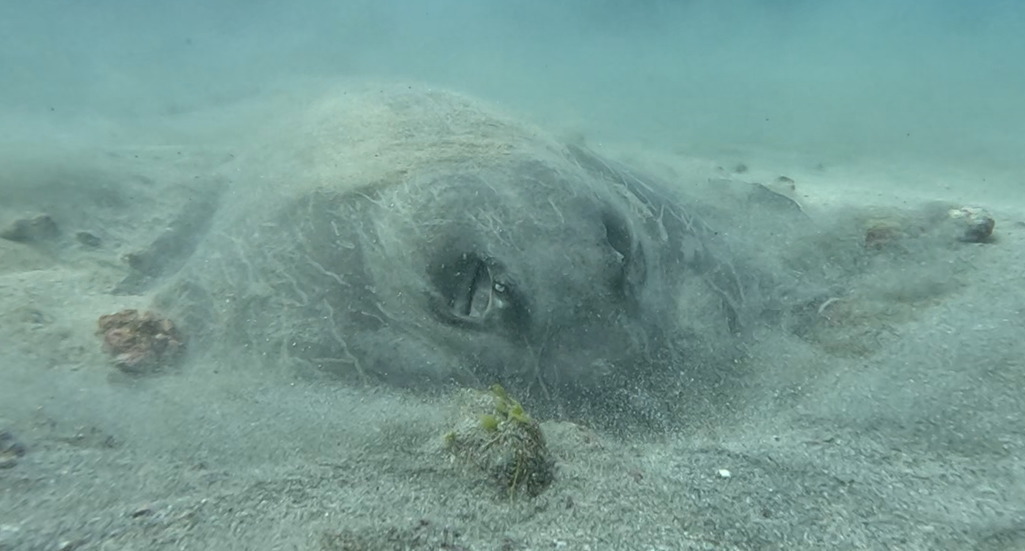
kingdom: Animalia
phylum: Chordata
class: Elasmobranchii
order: Myliobatiformes
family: Dasyatidae
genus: Hypanus
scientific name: Hypanus longus
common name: Longtail stingray
